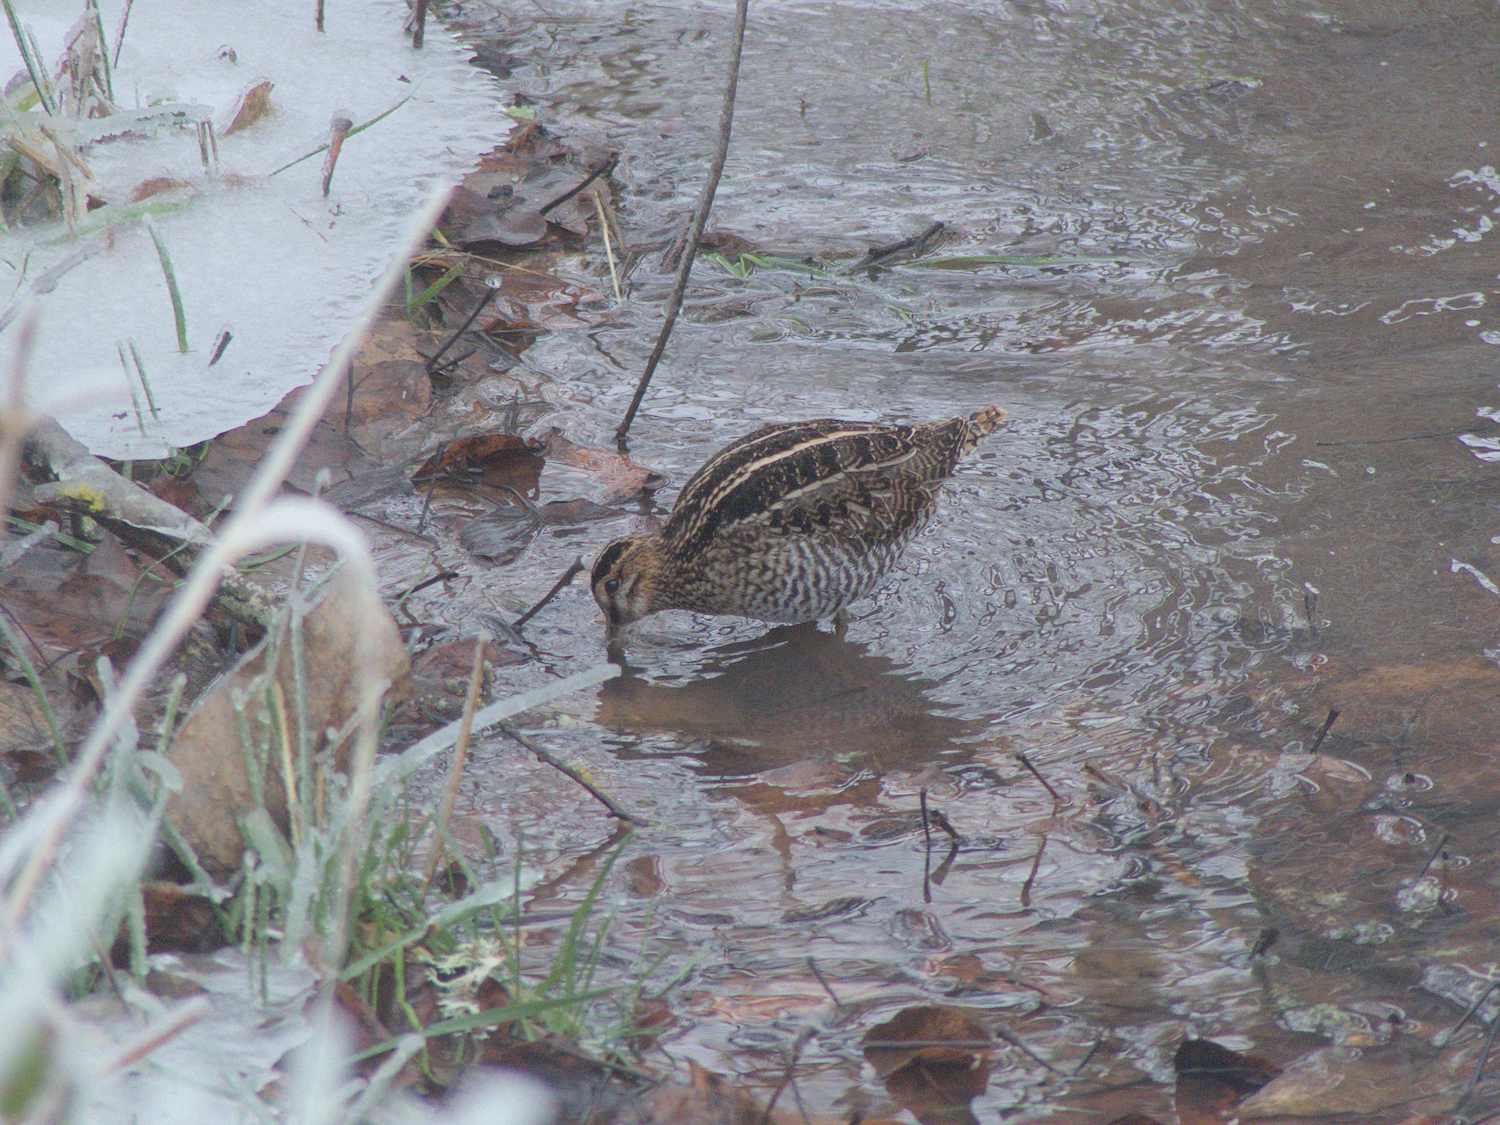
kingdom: Animalia
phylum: Chordata
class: Aves
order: Charadriiformes
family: Scolopacidae
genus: Gallinago
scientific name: Gallinago delicata
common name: Wilson's snipe
